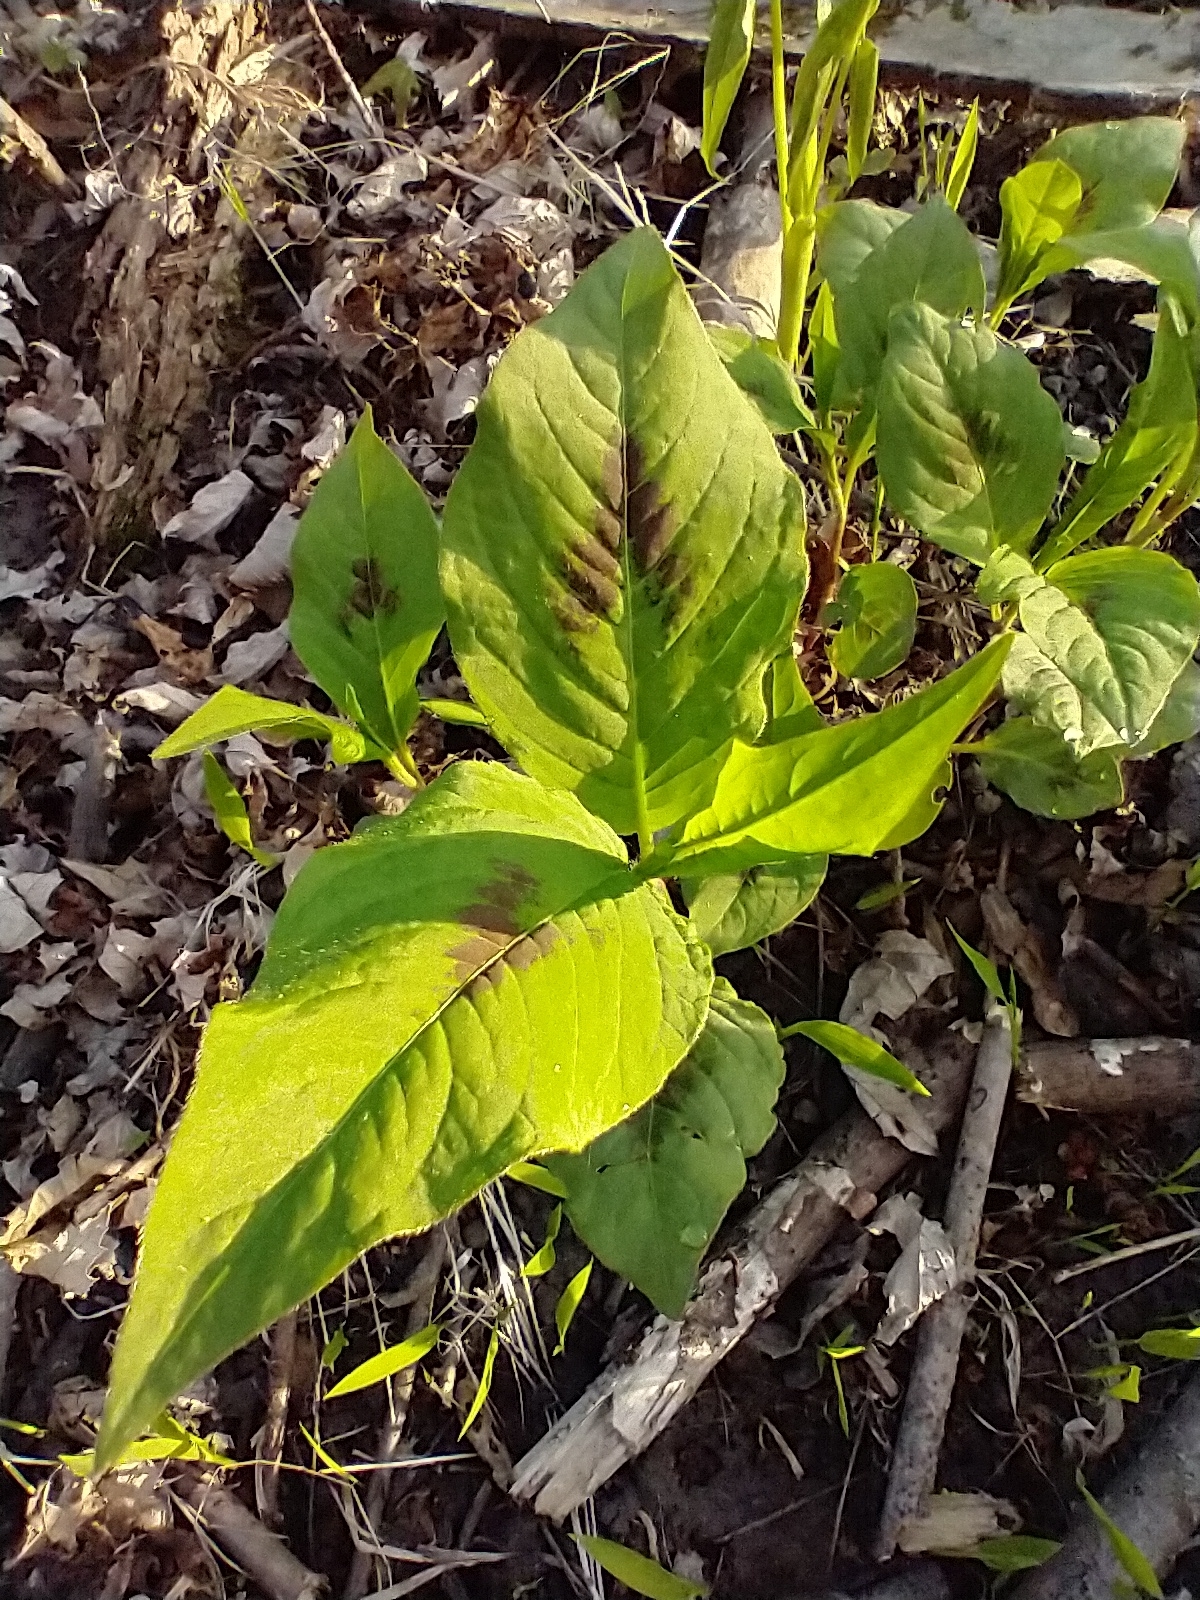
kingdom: Plantae
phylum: Tracheophyta
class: Magnoliopsida
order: Caryophyllales
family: Polygonaceae
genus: Persicaria
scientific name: Persicaria virginiana
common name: Jumpseed
